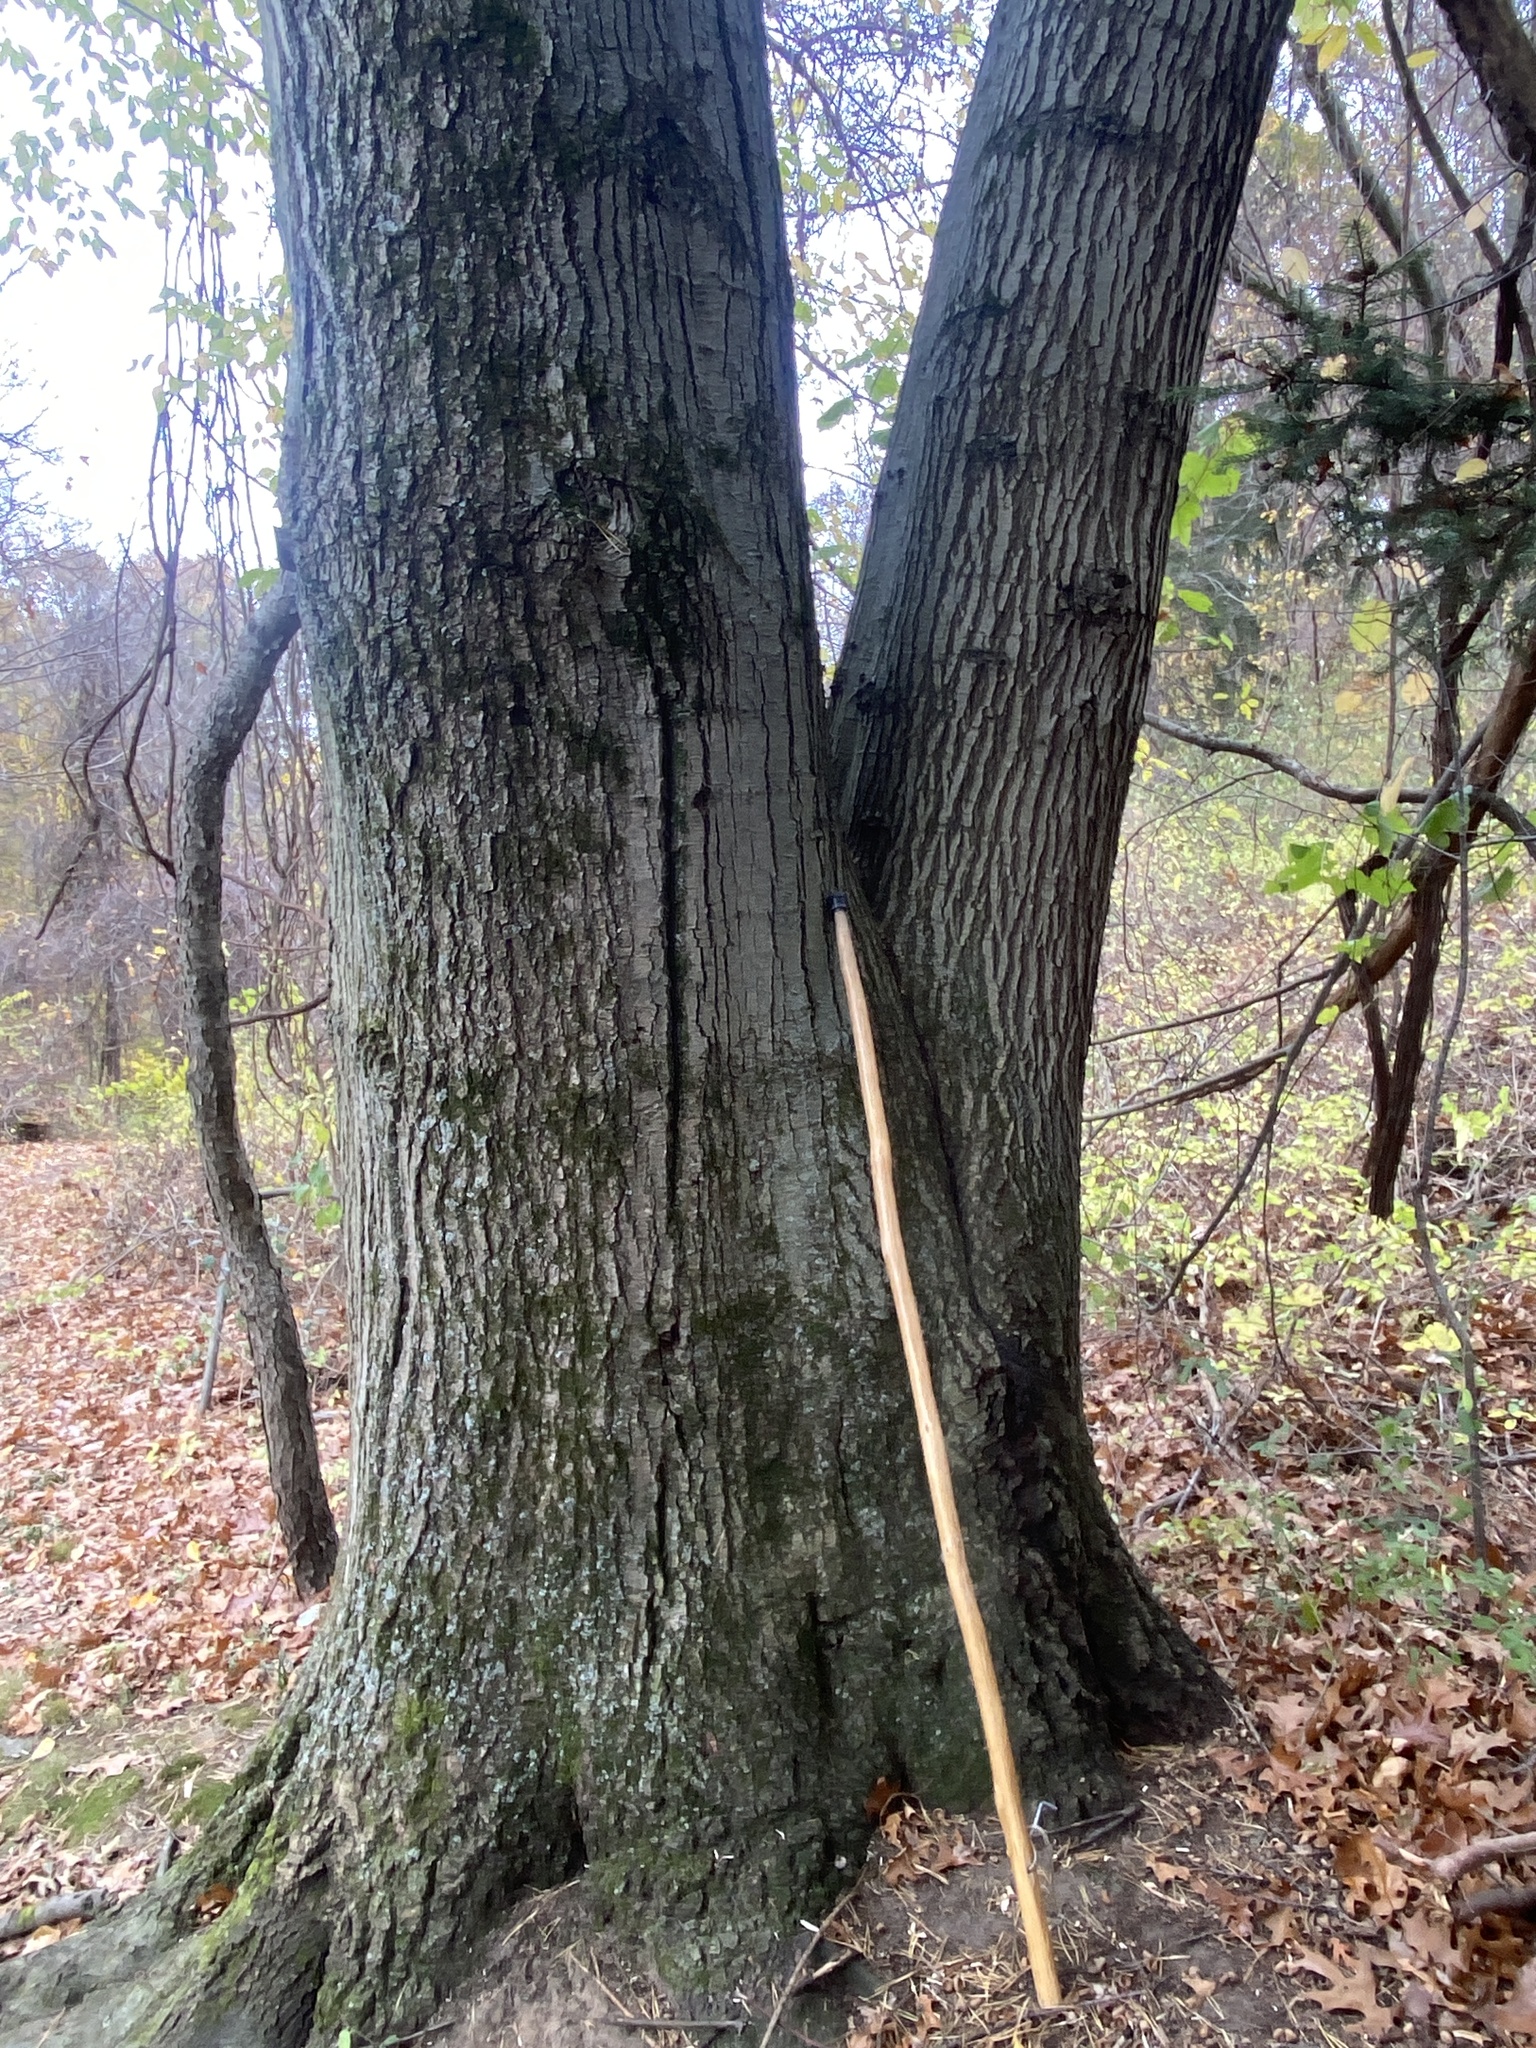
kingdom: Plantae
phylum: Tracheophyta
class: Magnoliopsida
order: Fagales
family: Fagaceae
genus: Quercus
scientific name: Quercus rubra
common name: Red oak
